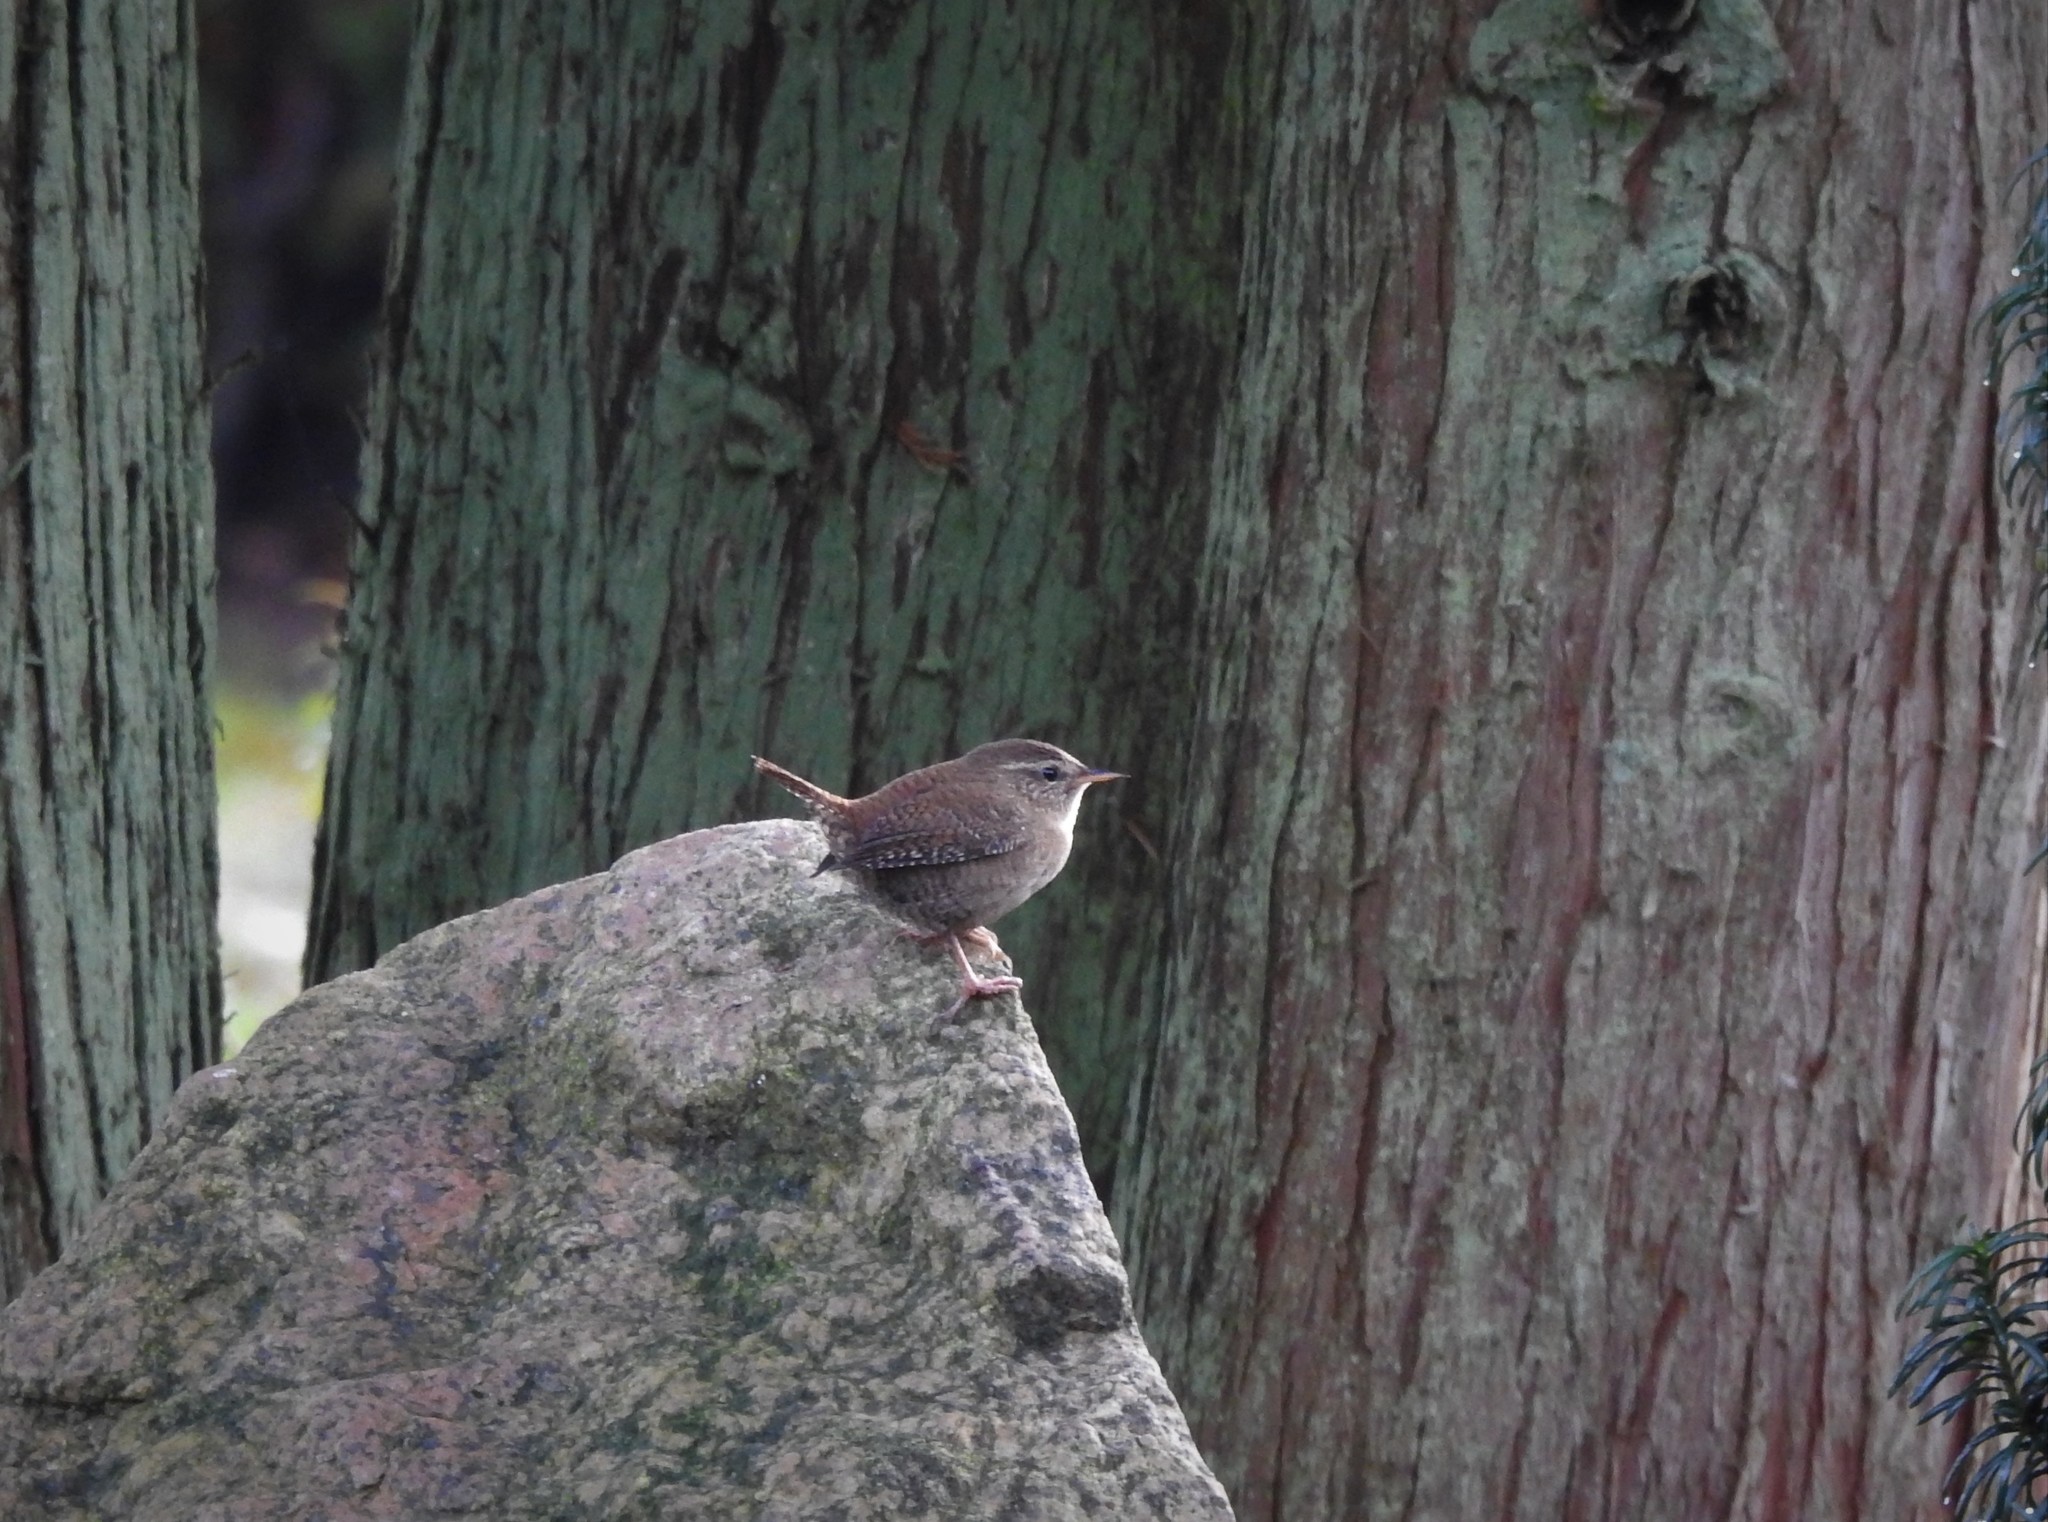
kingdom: Animalia
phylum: Chordata
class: Aves
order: Passeriformes
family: Troglodytidae
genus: Troglodytes
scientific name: Troglodytes troglodytes
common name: Eurasian wren
